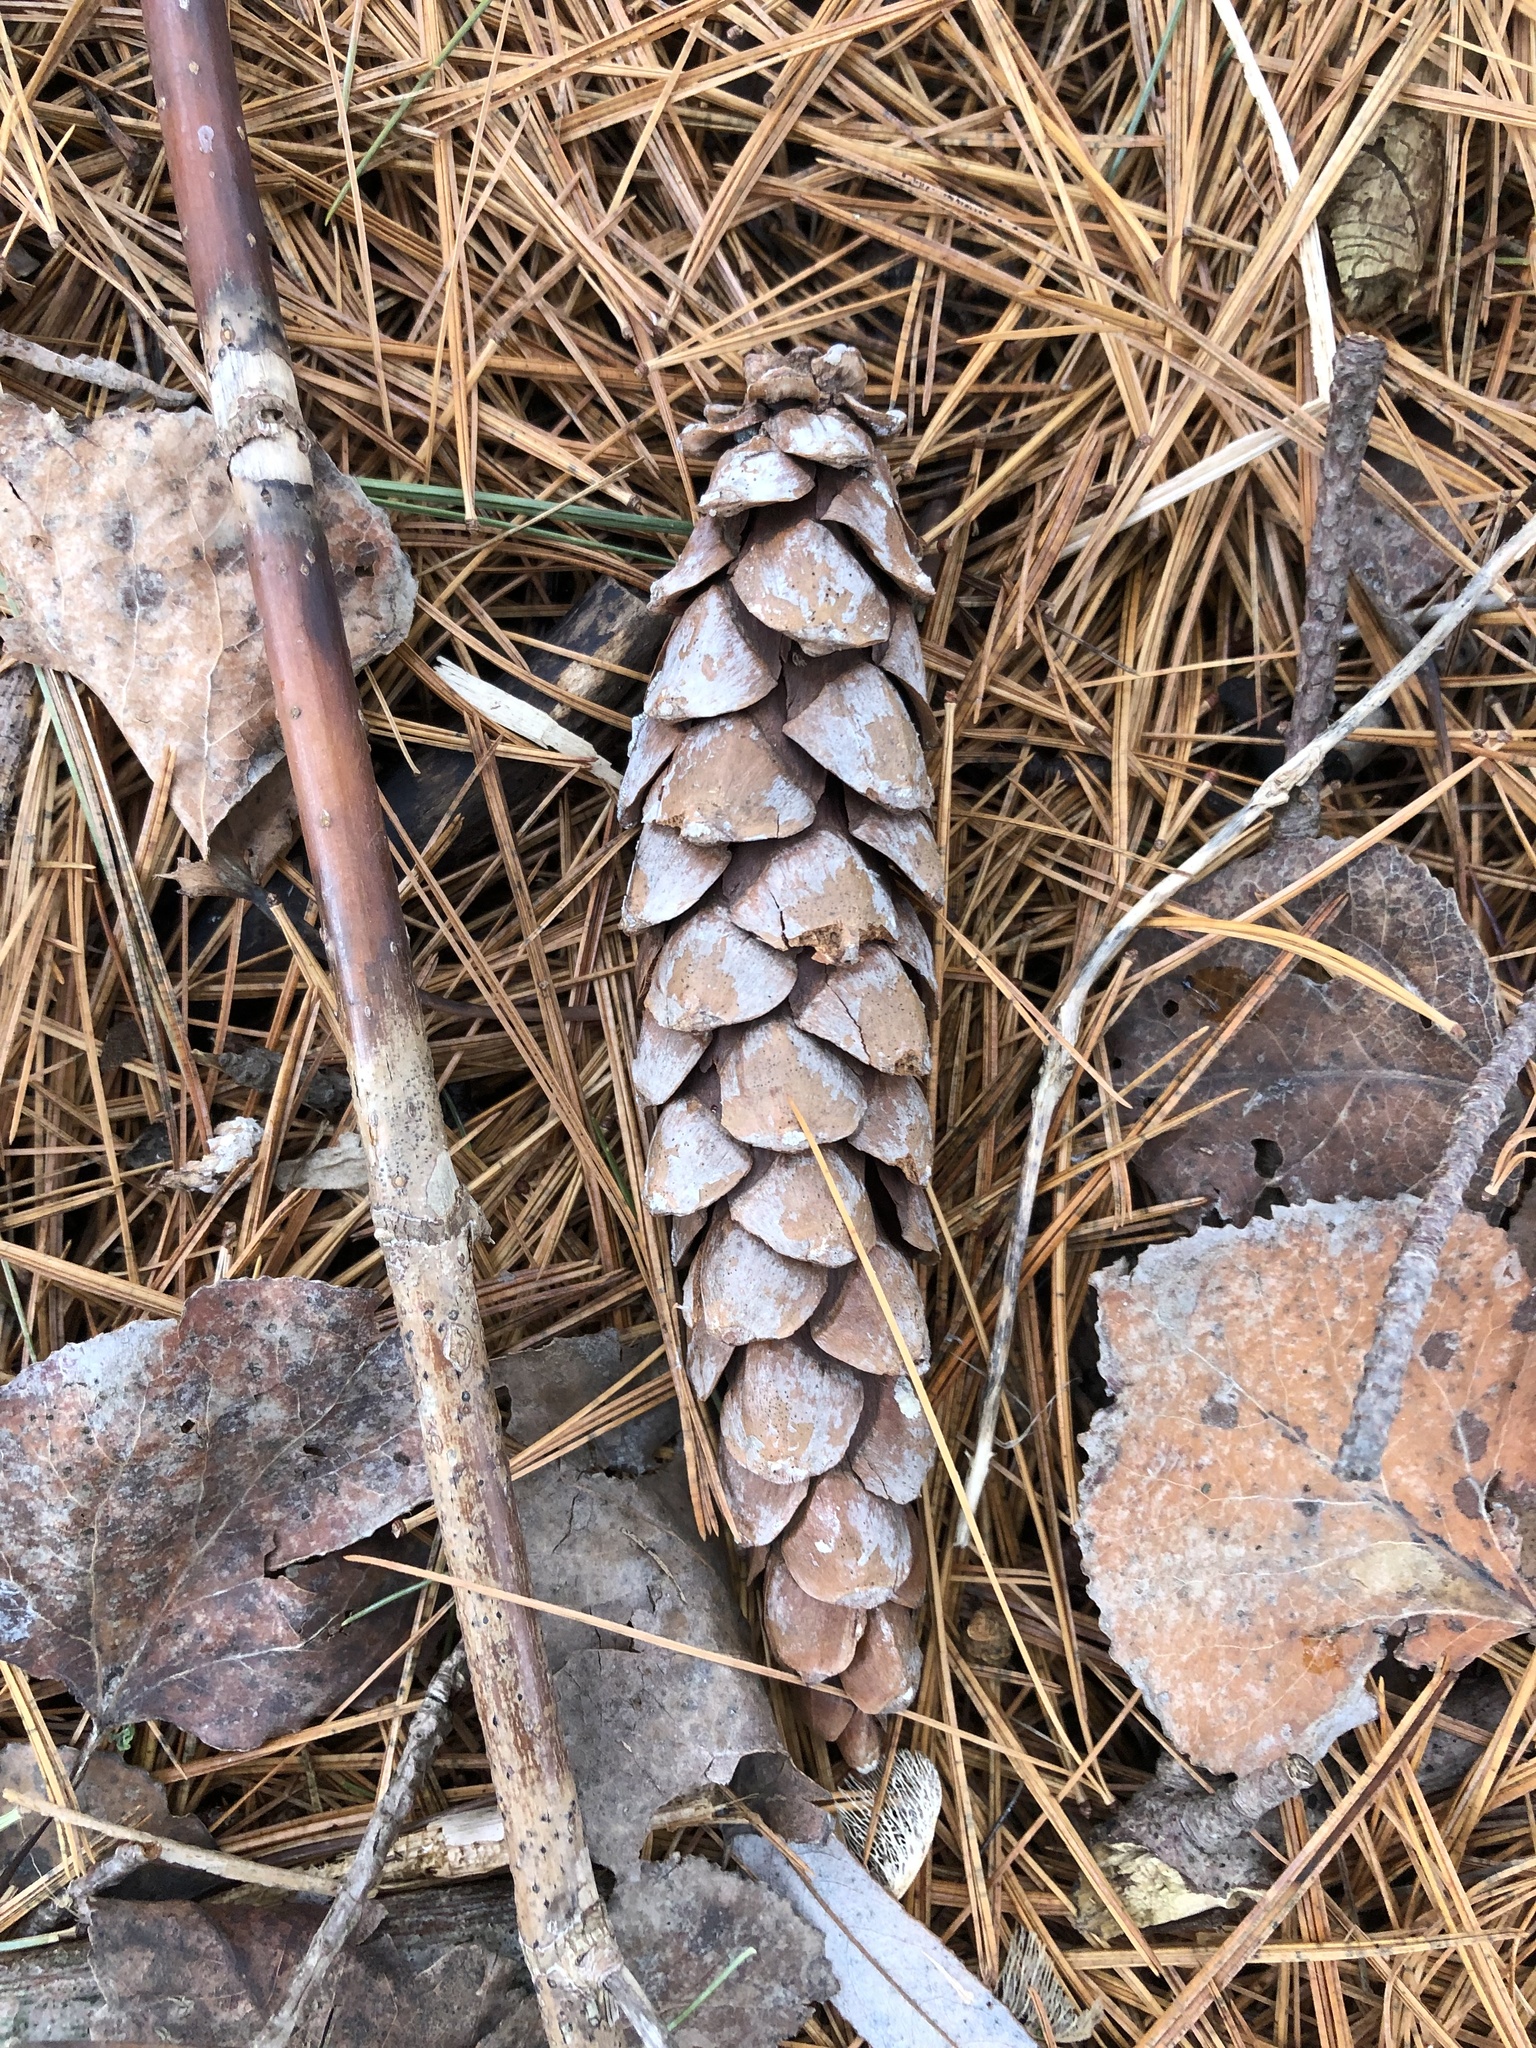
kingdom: Plantae
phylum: Tracheophyta
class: Pinopsida
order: Pinales
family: Pinaceae
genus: Pinus
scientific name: Pinus strobus
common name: Weymouth pine
